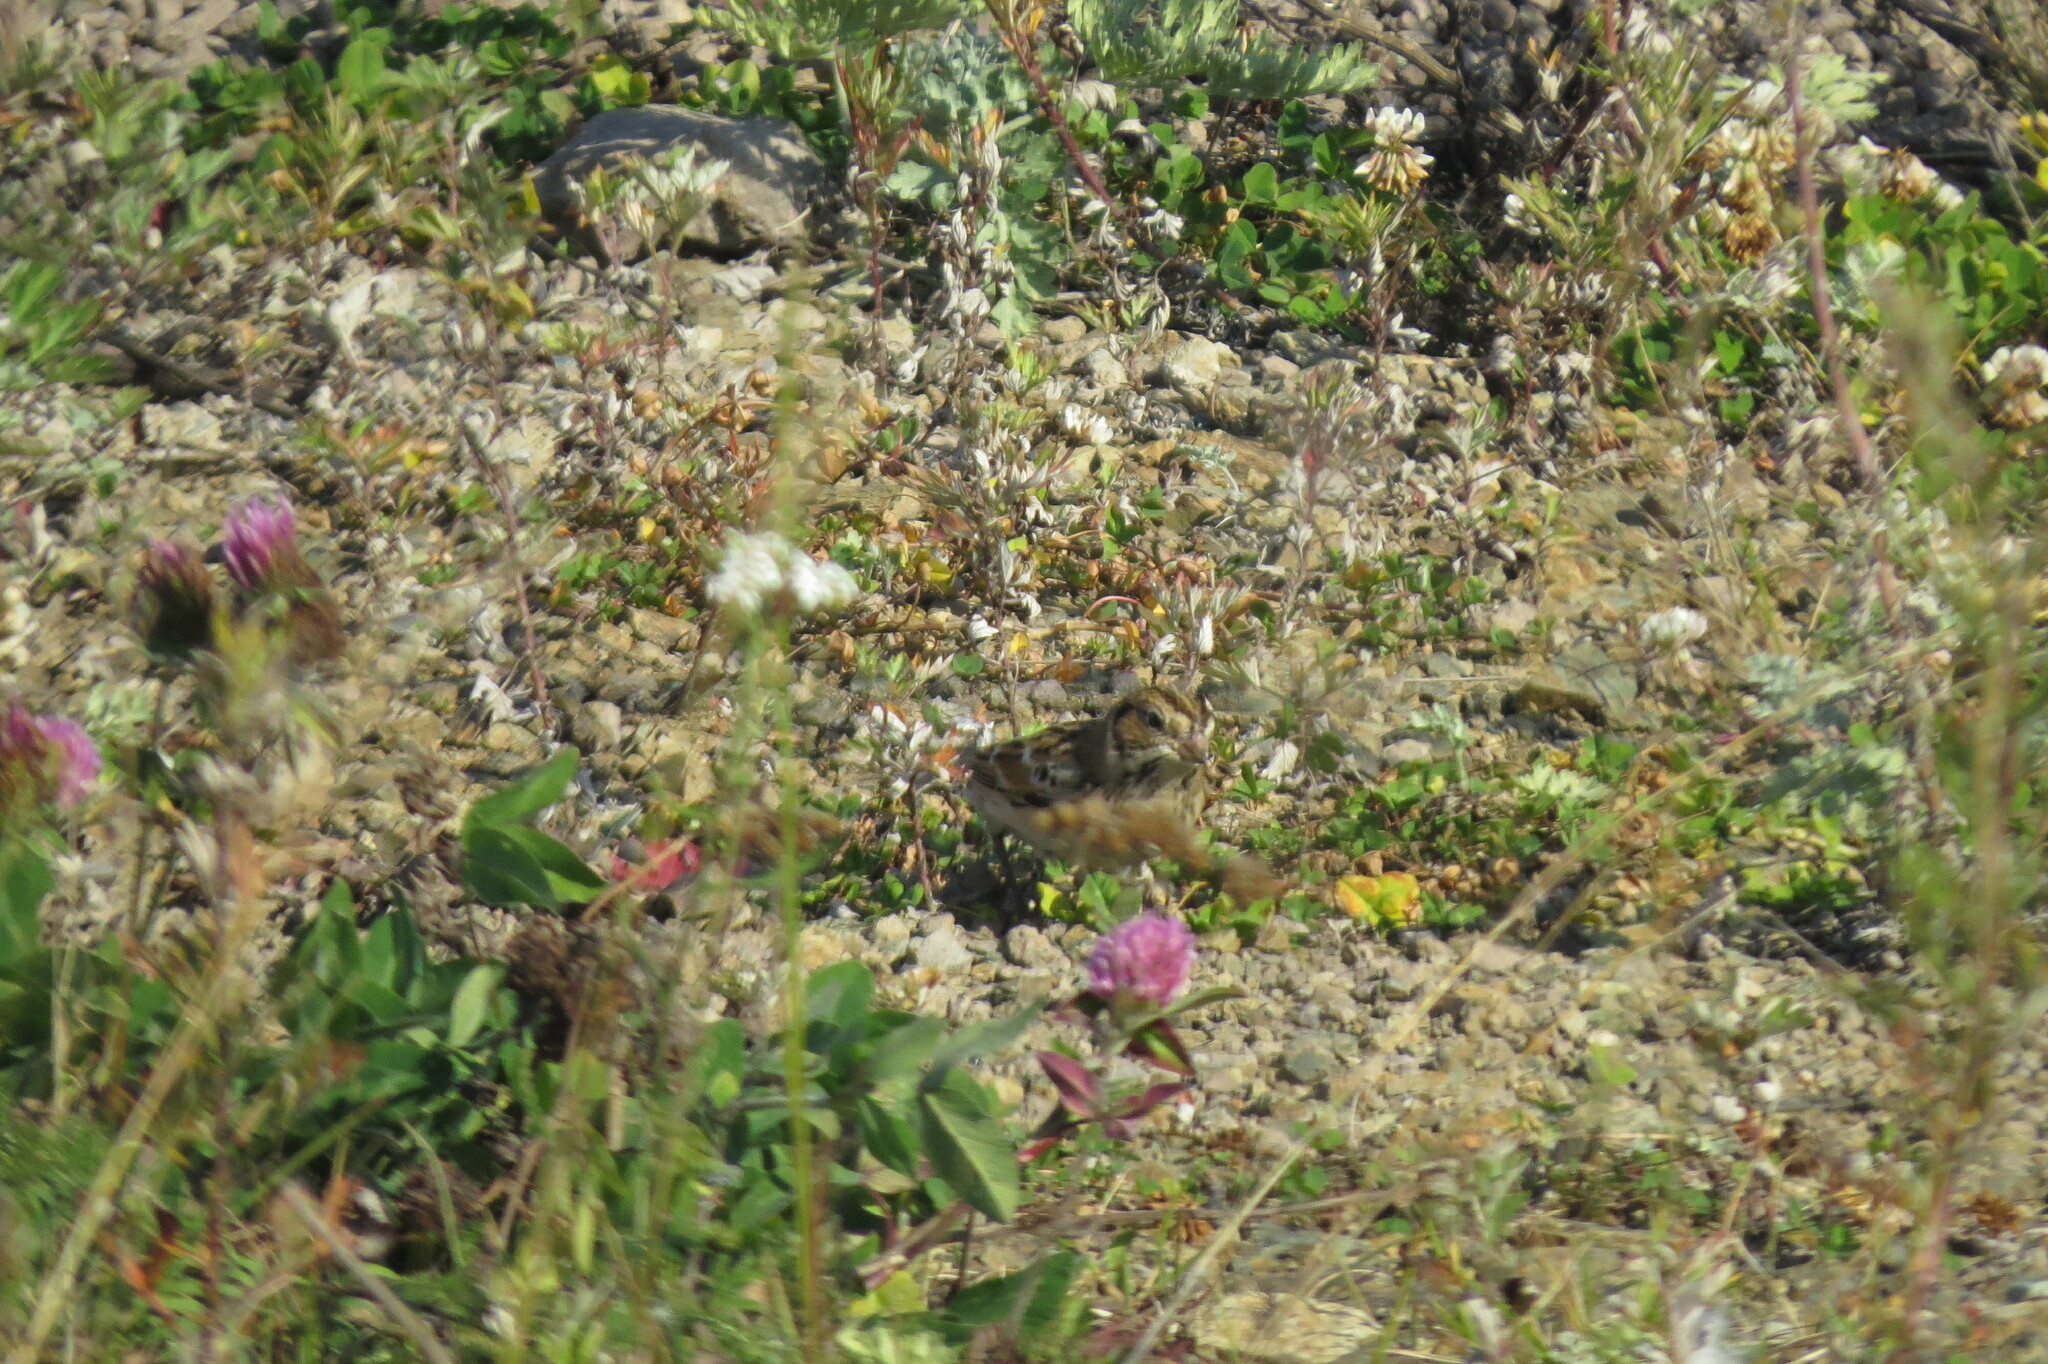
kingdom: Animalia
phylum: Chordata
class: Aves
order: Passeriformes
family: Calcariidae
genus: Calcarius
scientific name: Calcarius lapponicus
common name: Lapland longspur
